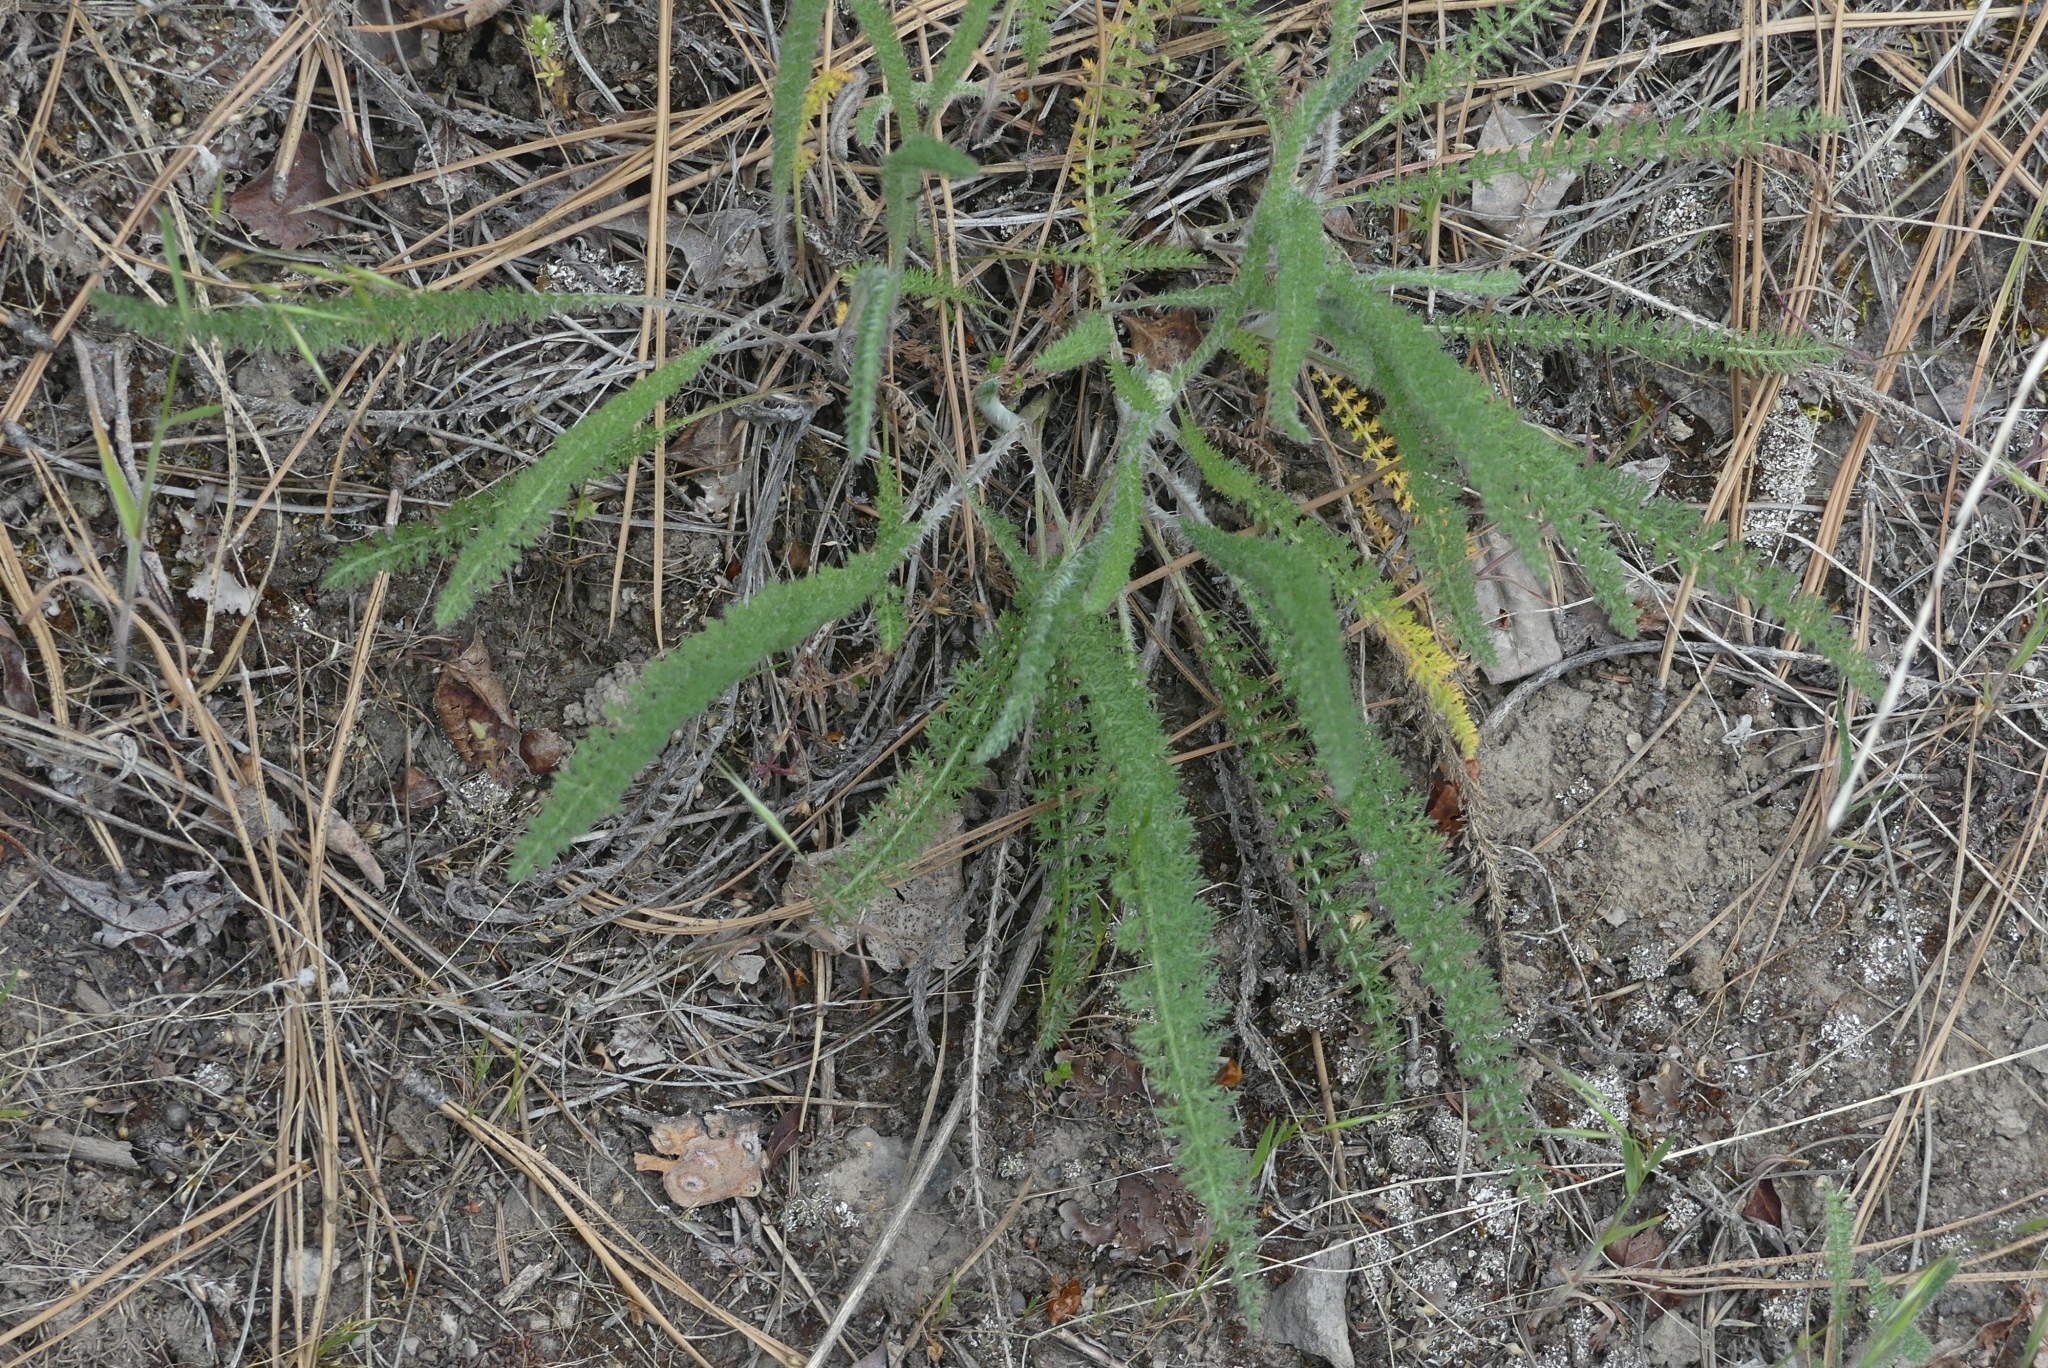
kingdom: Plantae
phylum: Tracheophyta
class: Magnoliopsida
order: Asterales
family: Asteraceae
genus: Achillea
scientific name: Achillea millefolium
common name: Yarrow
